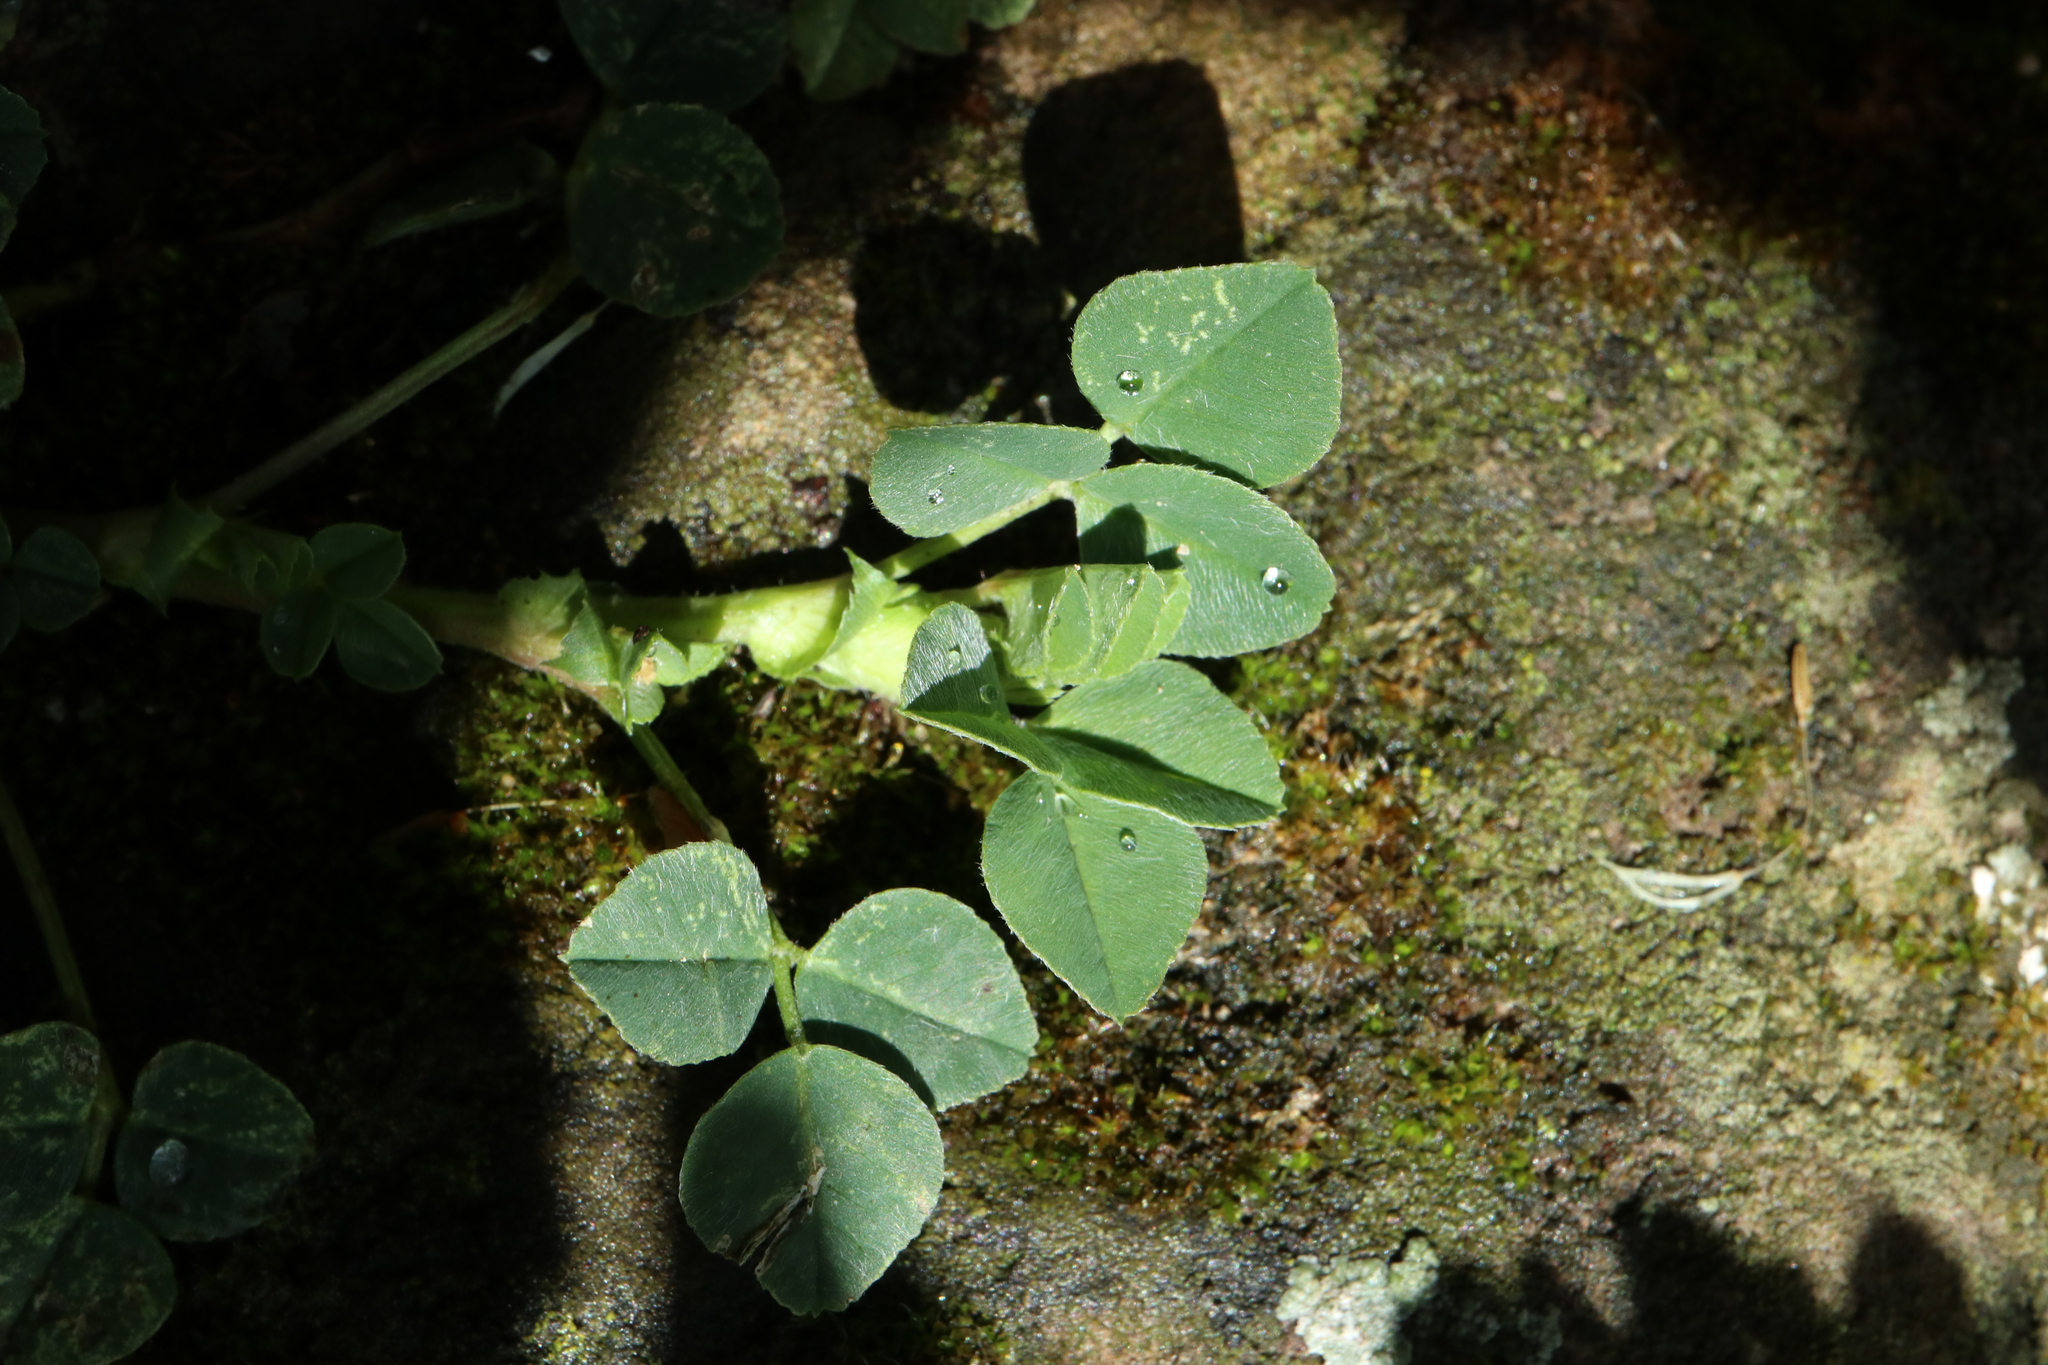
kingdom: Plantae
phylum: Tracheophyta
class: Magnoliopsida
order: Fabales
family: Fabaceae
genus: Medicago
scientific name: Medicago lupulina
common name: Black medick
